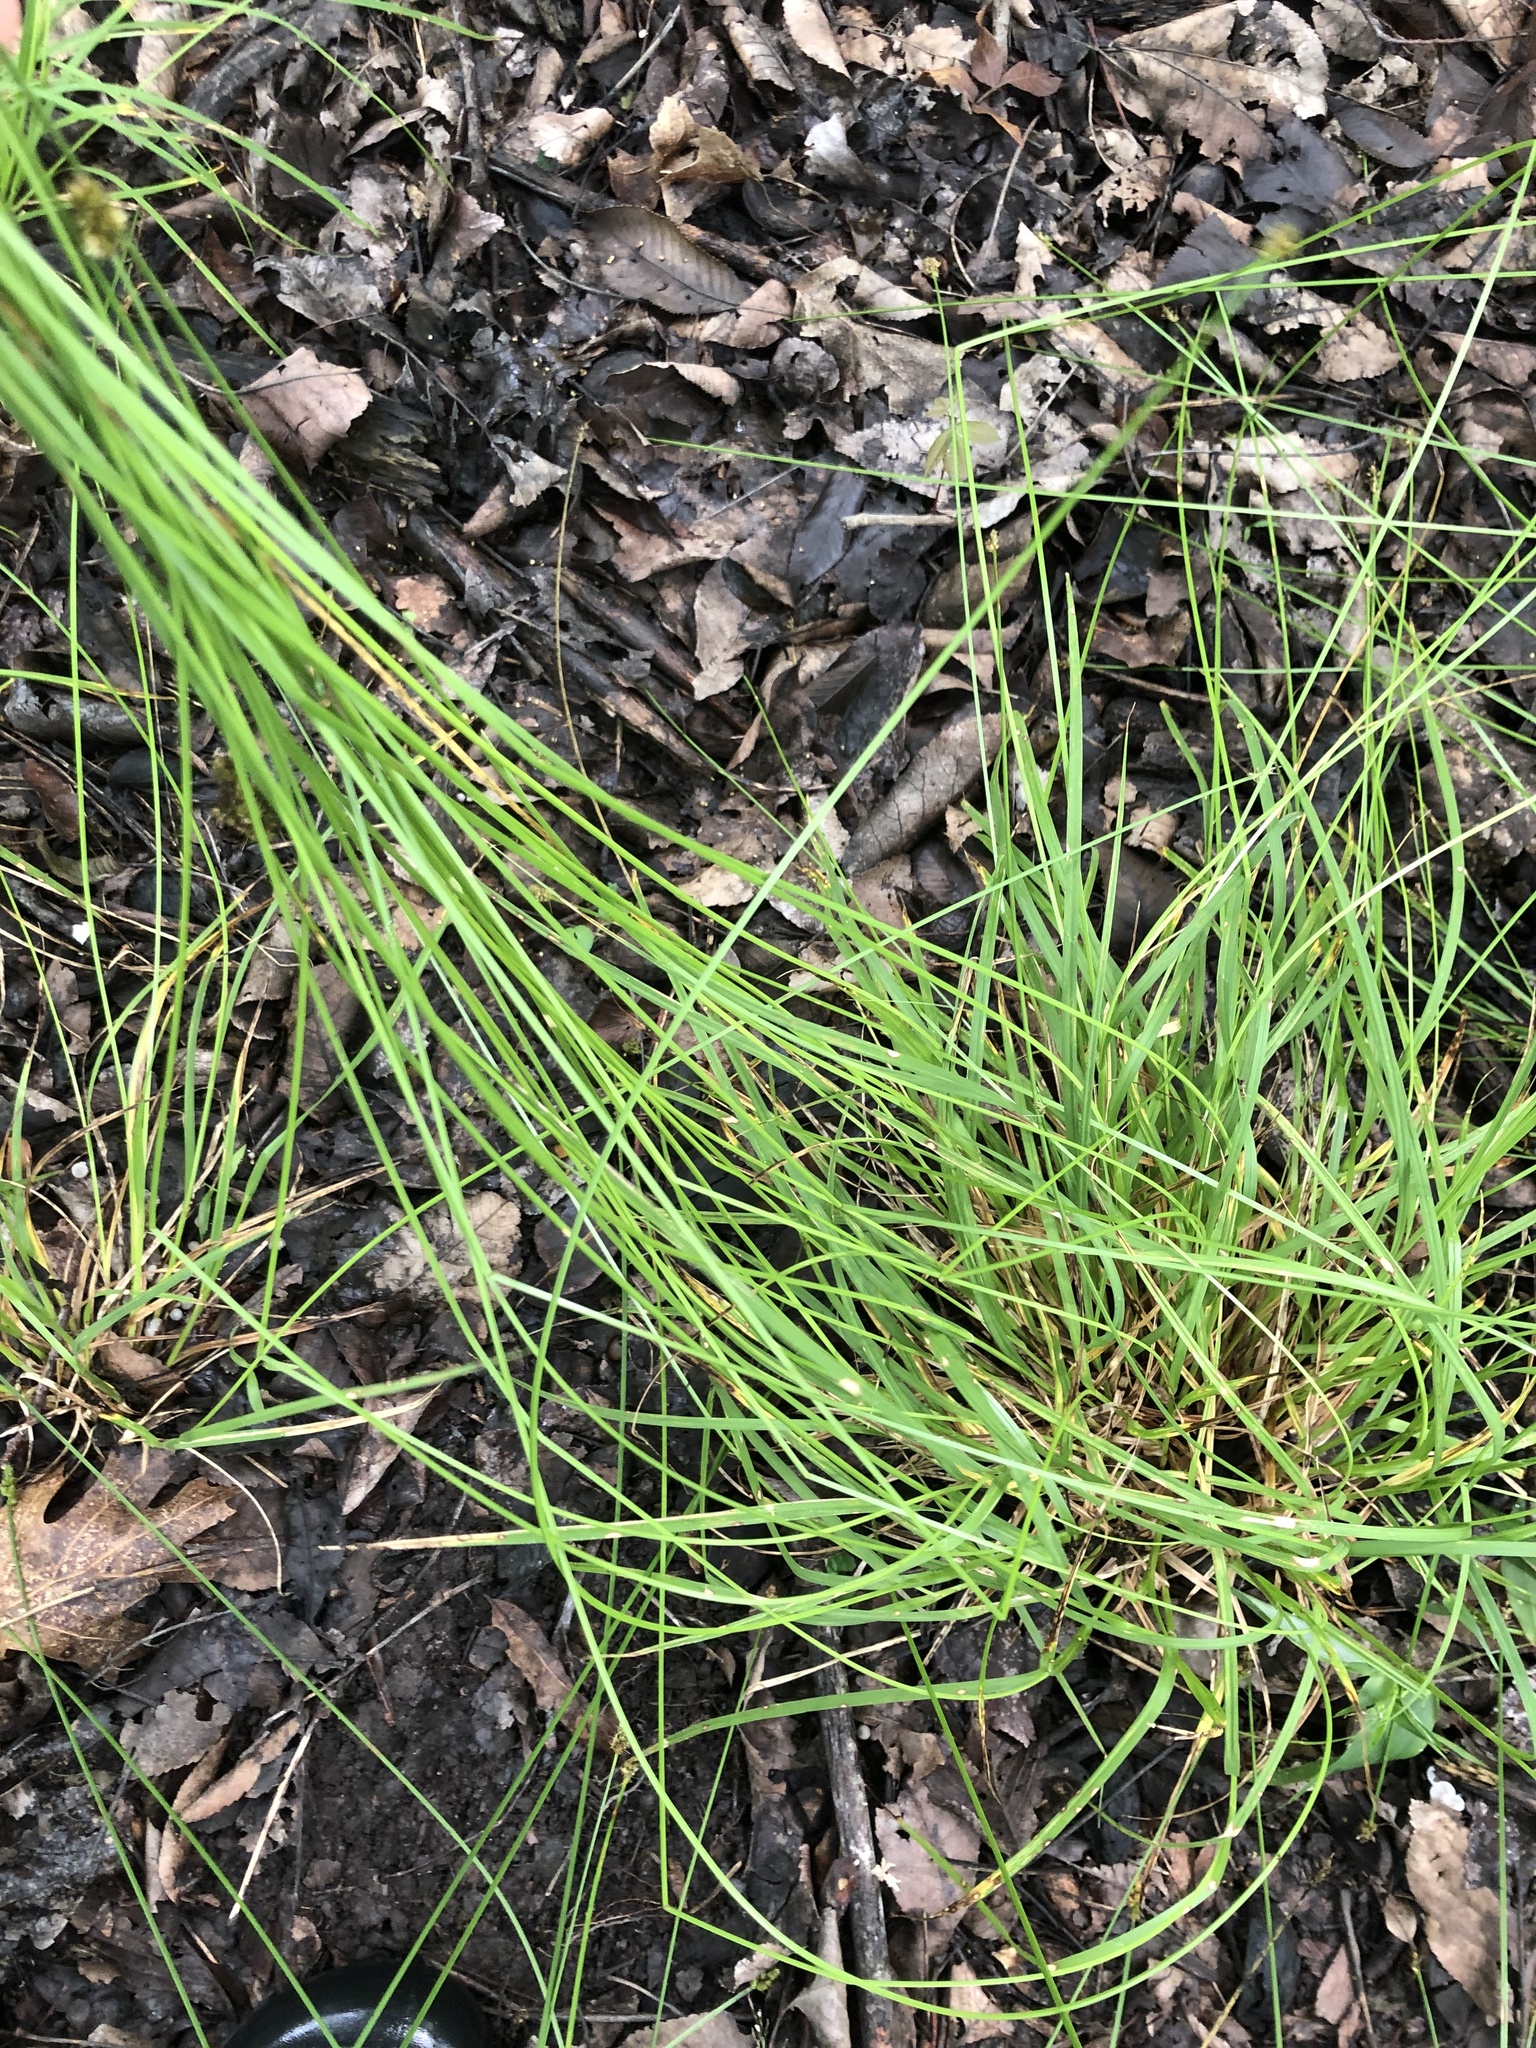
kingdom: Plantae
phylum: Tracheophyta
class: Liliopsida
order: Poales
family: Cyperaceae
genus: Carex
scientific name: Carex leavenworthii
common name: Leavenworth's bracted sedge
